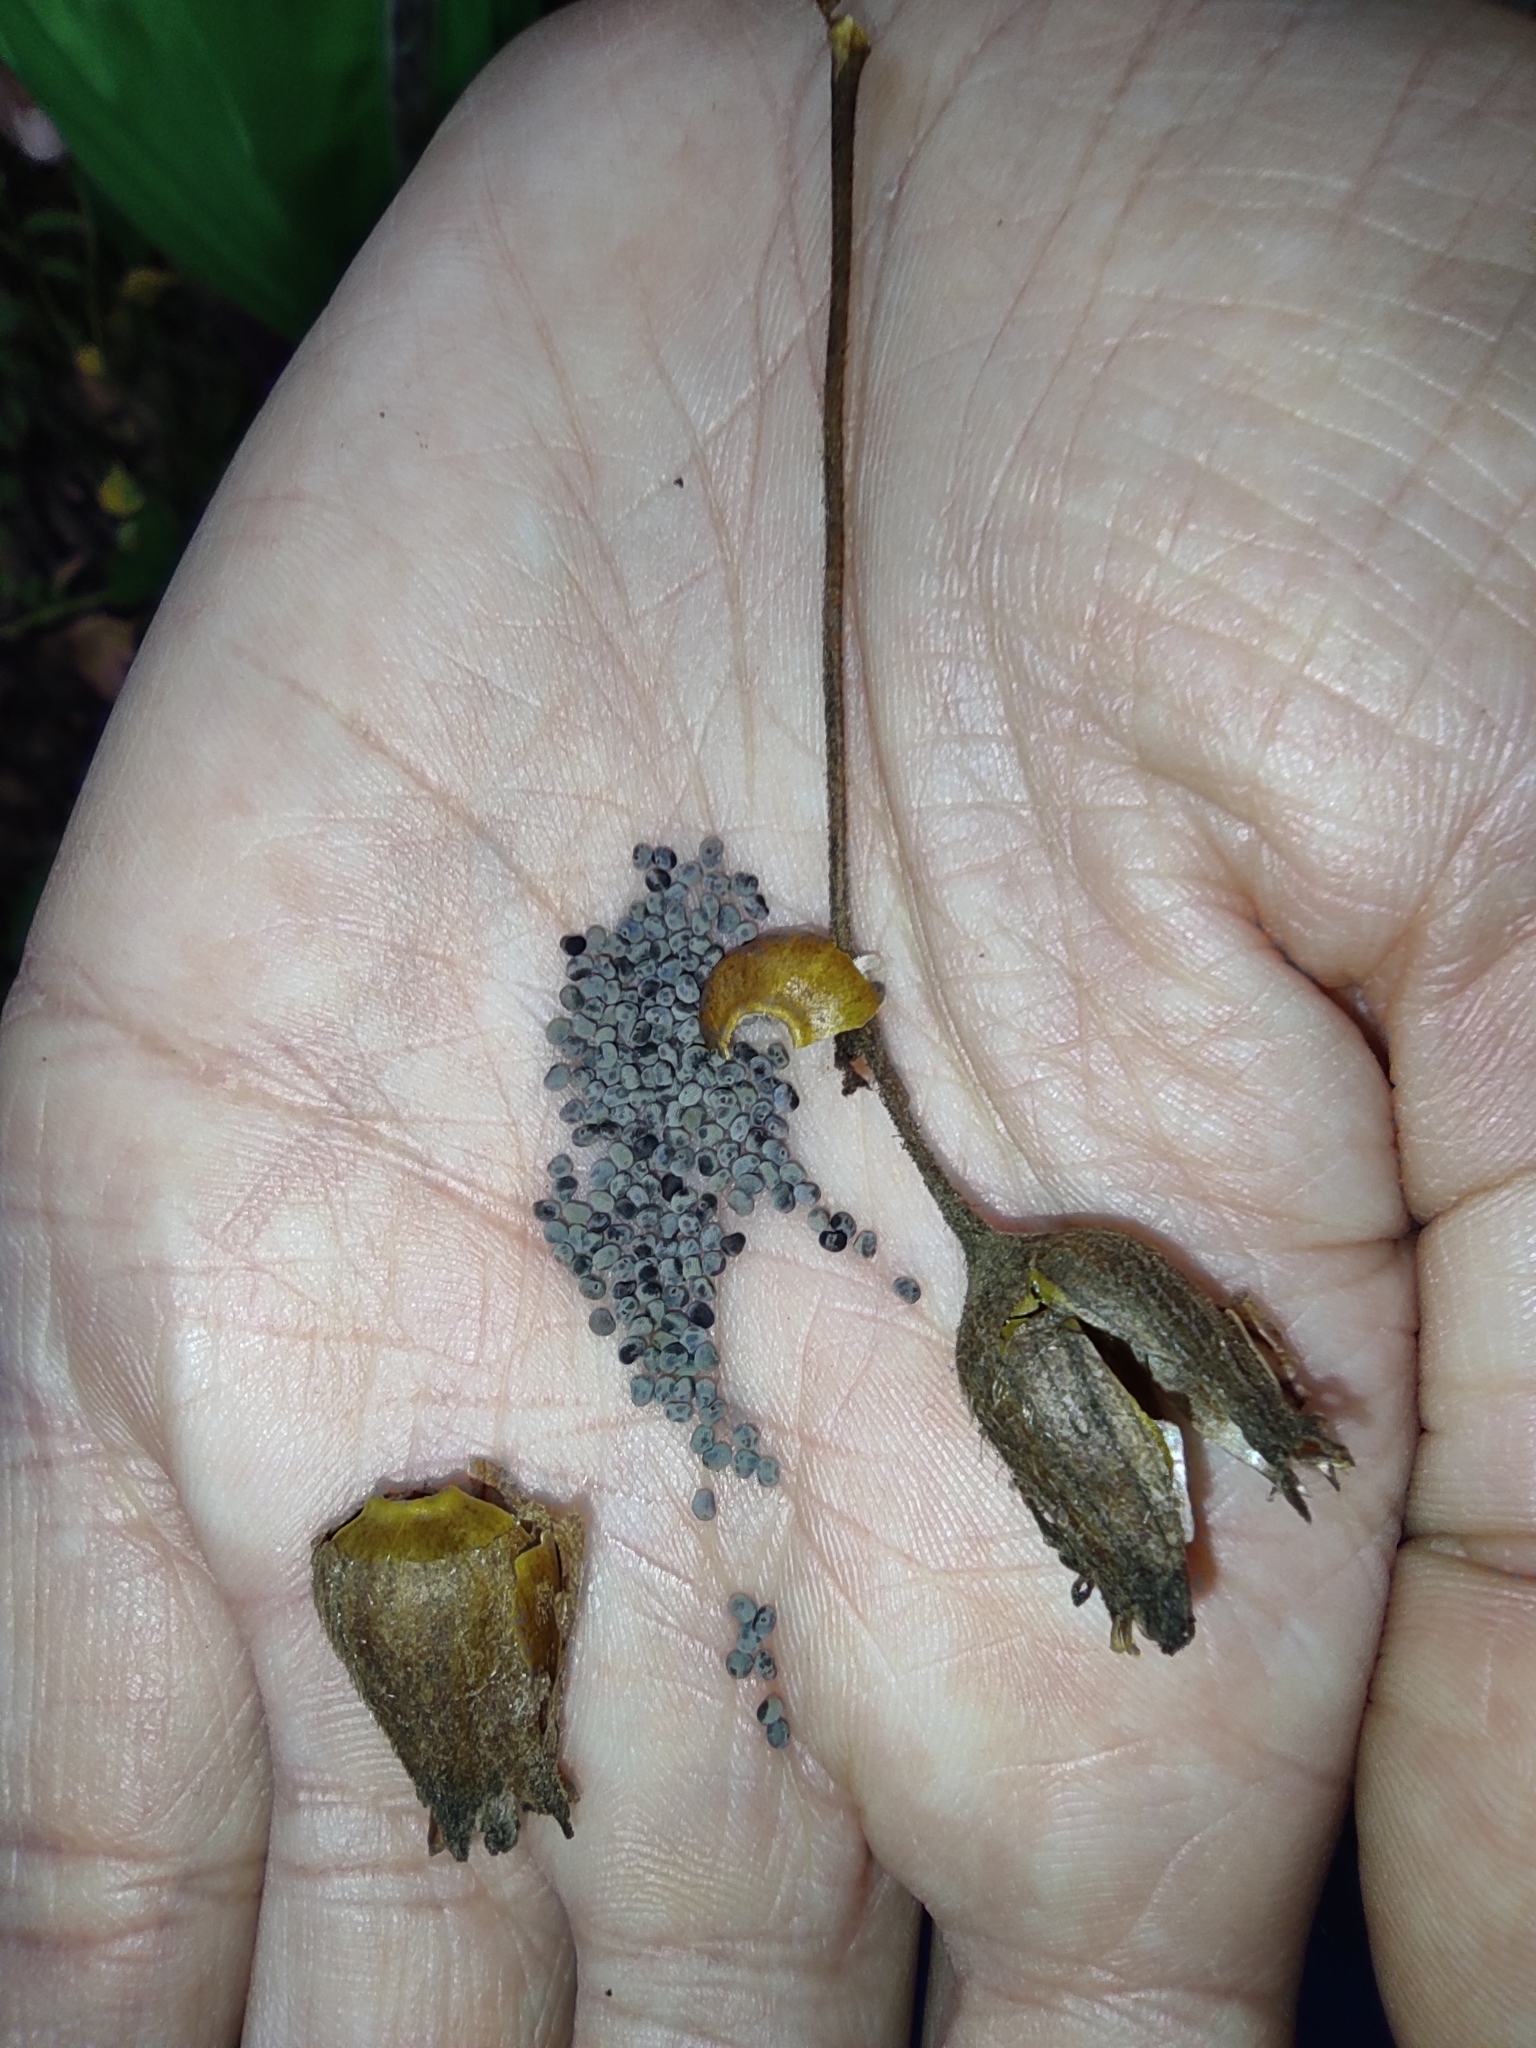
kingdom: Plantae
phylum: Tracheophyta
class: Magnoliopsida
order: Caryophyllales
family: Caryophyllaceae
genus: Silene
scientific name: Silene latifolia
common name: White campion
